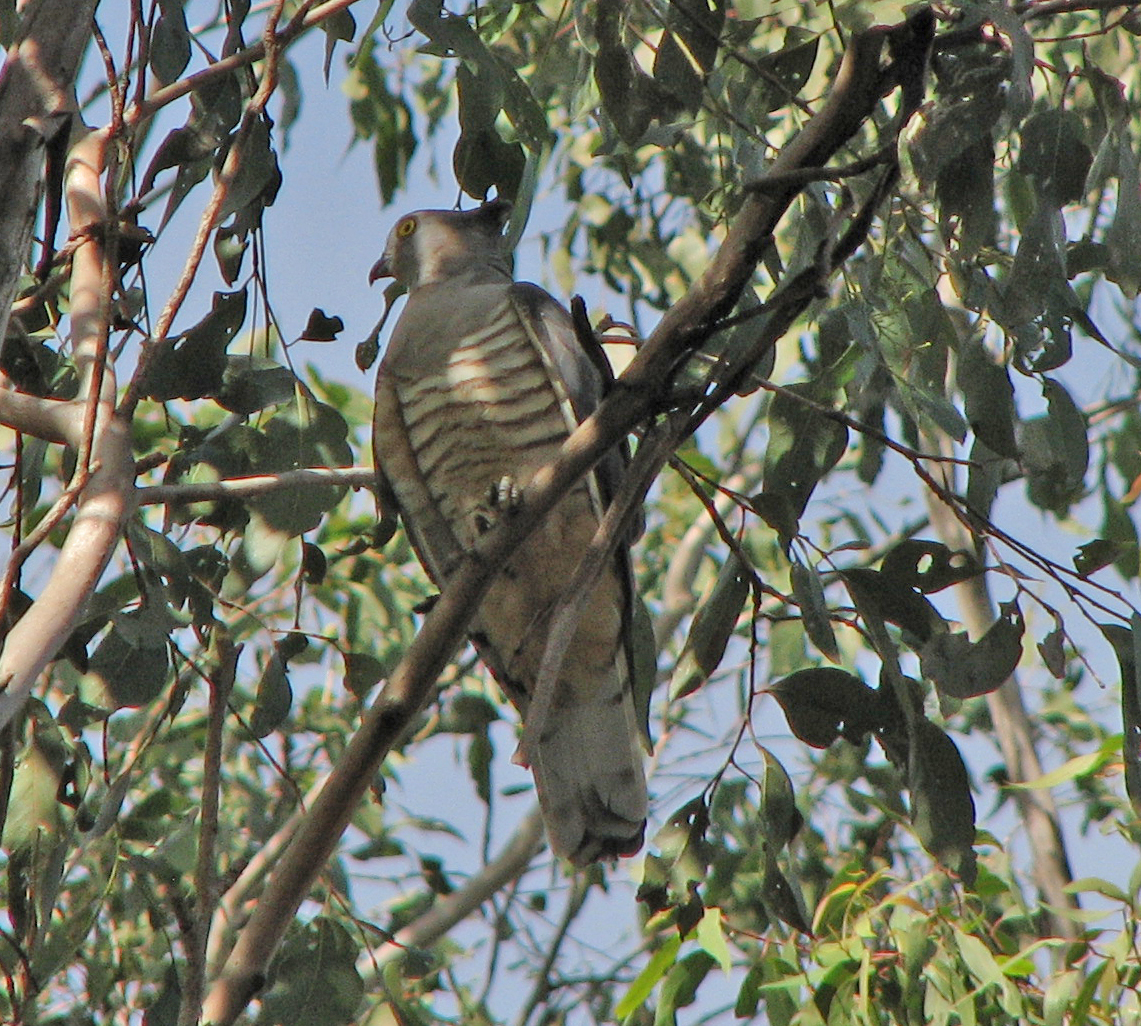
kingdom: Animalia
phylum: Chordata
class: Aves
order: Accipitriformes
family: Accipitridae
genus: Aviceda
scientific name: Aviceda subcristata
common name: Pacific baza
